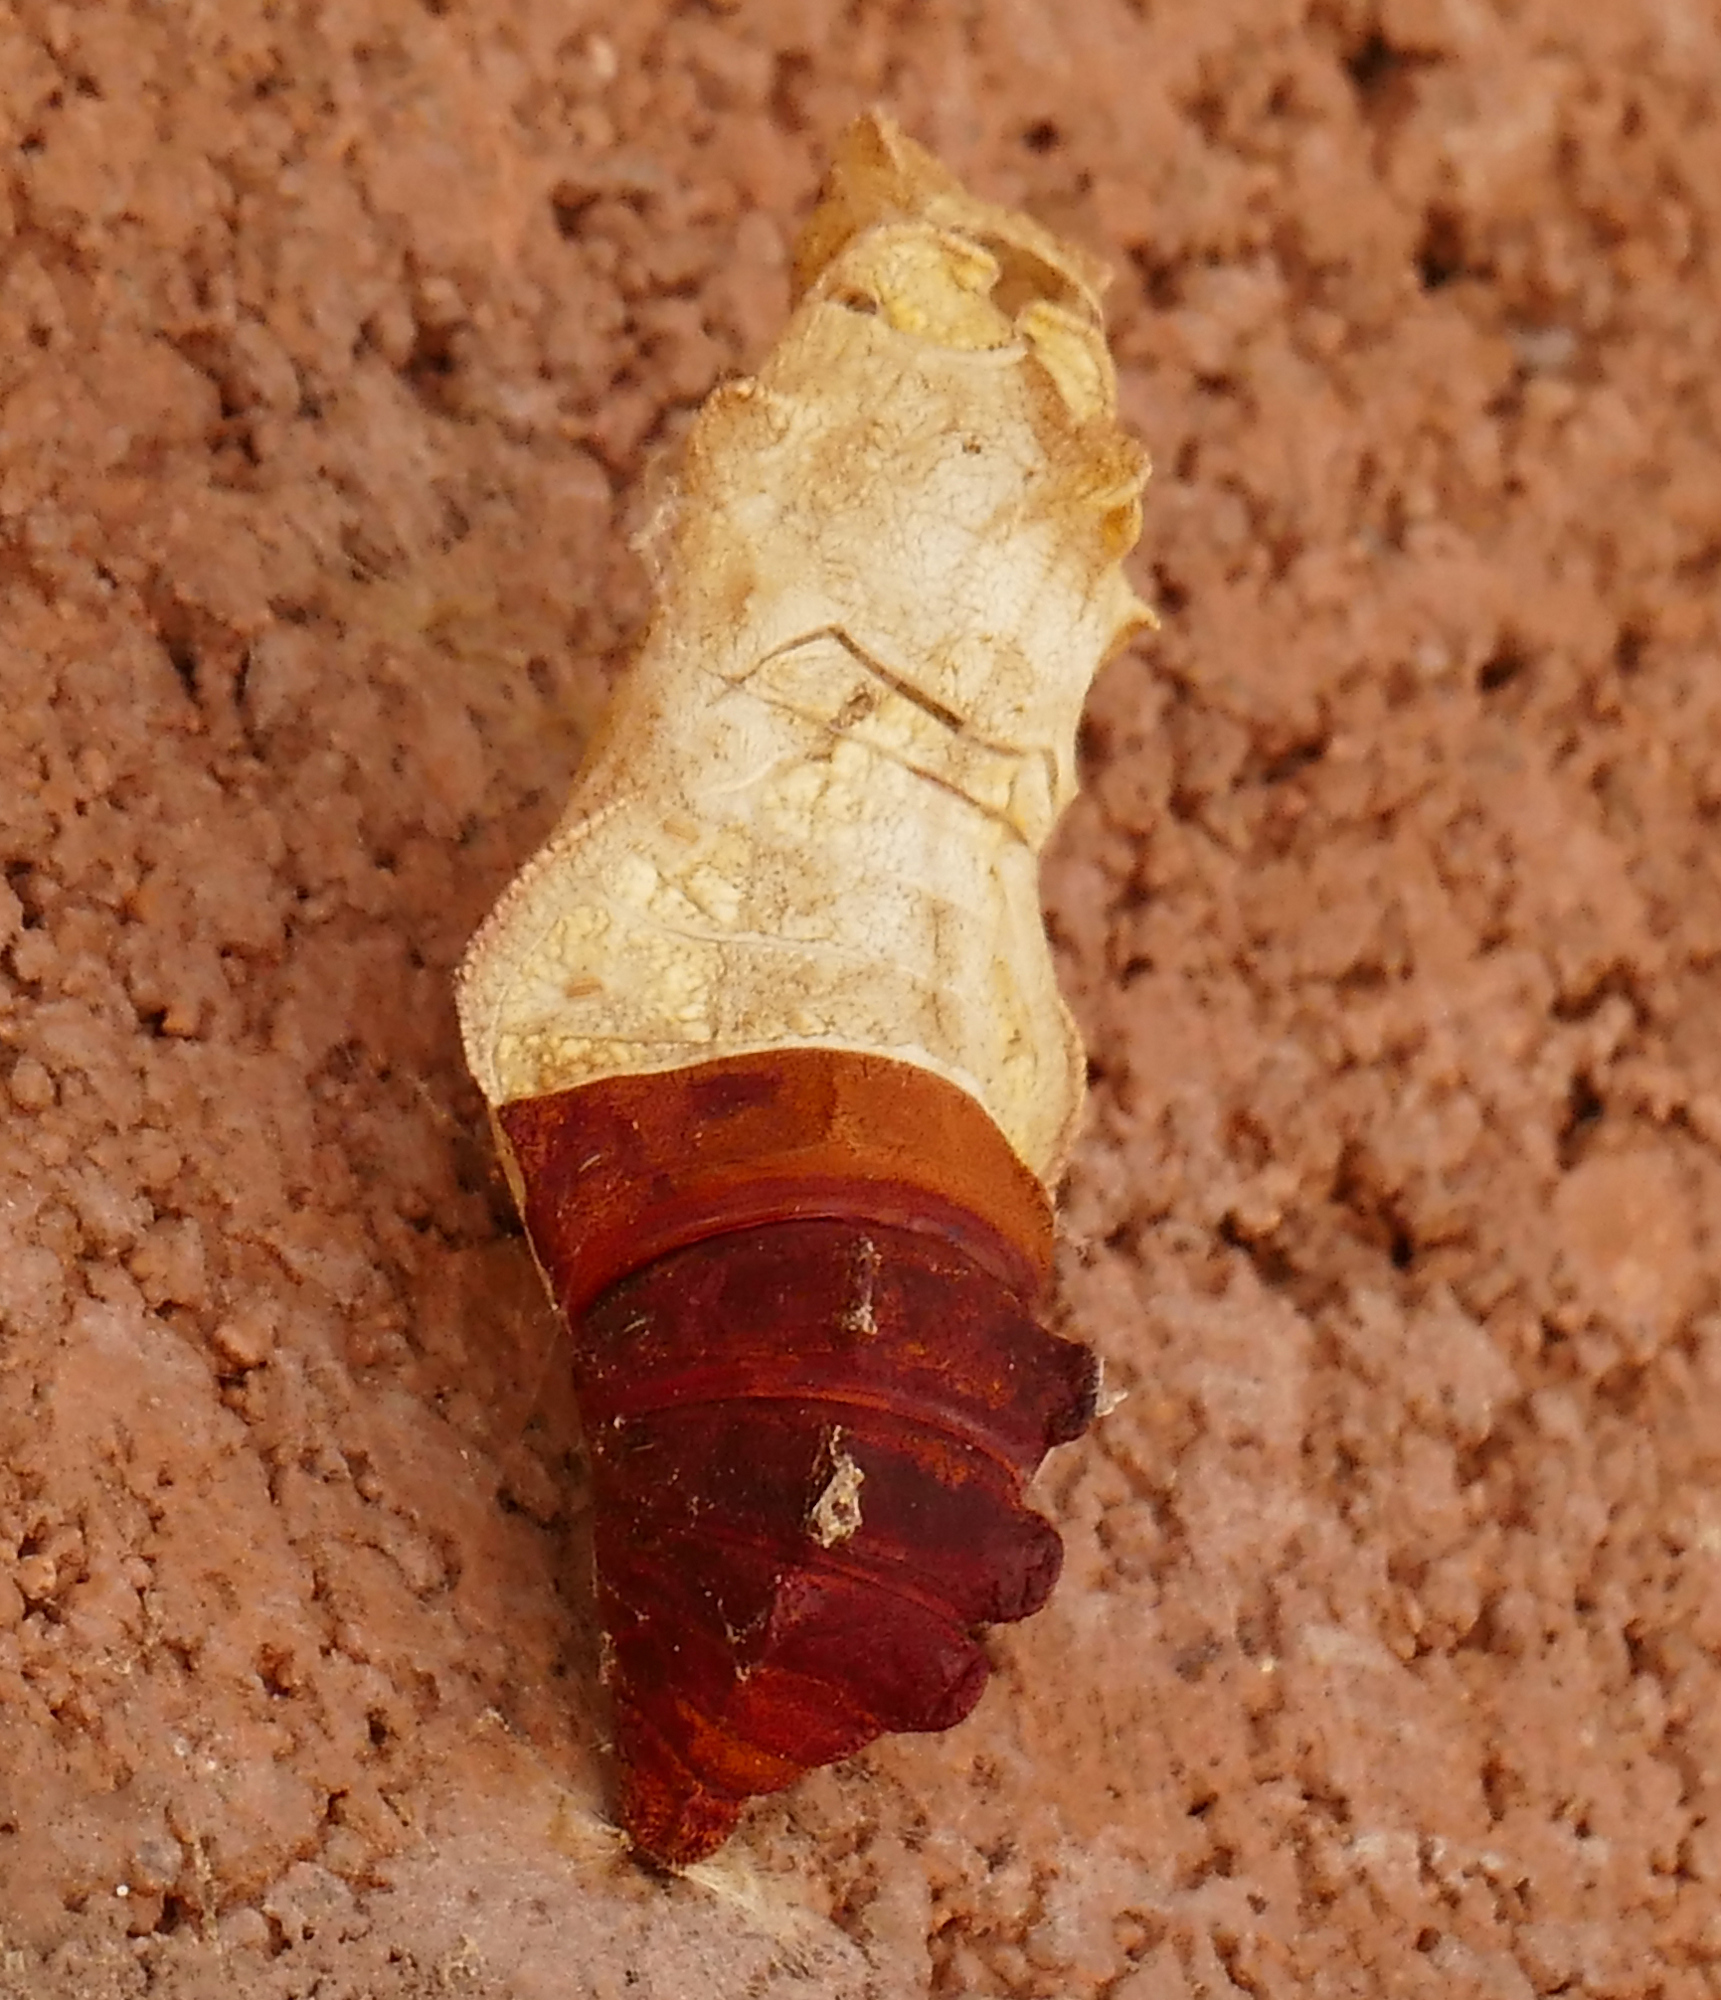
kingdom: Animalia
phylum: Arthropoda
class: Insecta
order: Lepidoptera
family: Papilionidae
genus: Battus
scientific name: Battus philenor
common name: Pipevine swallowtail
